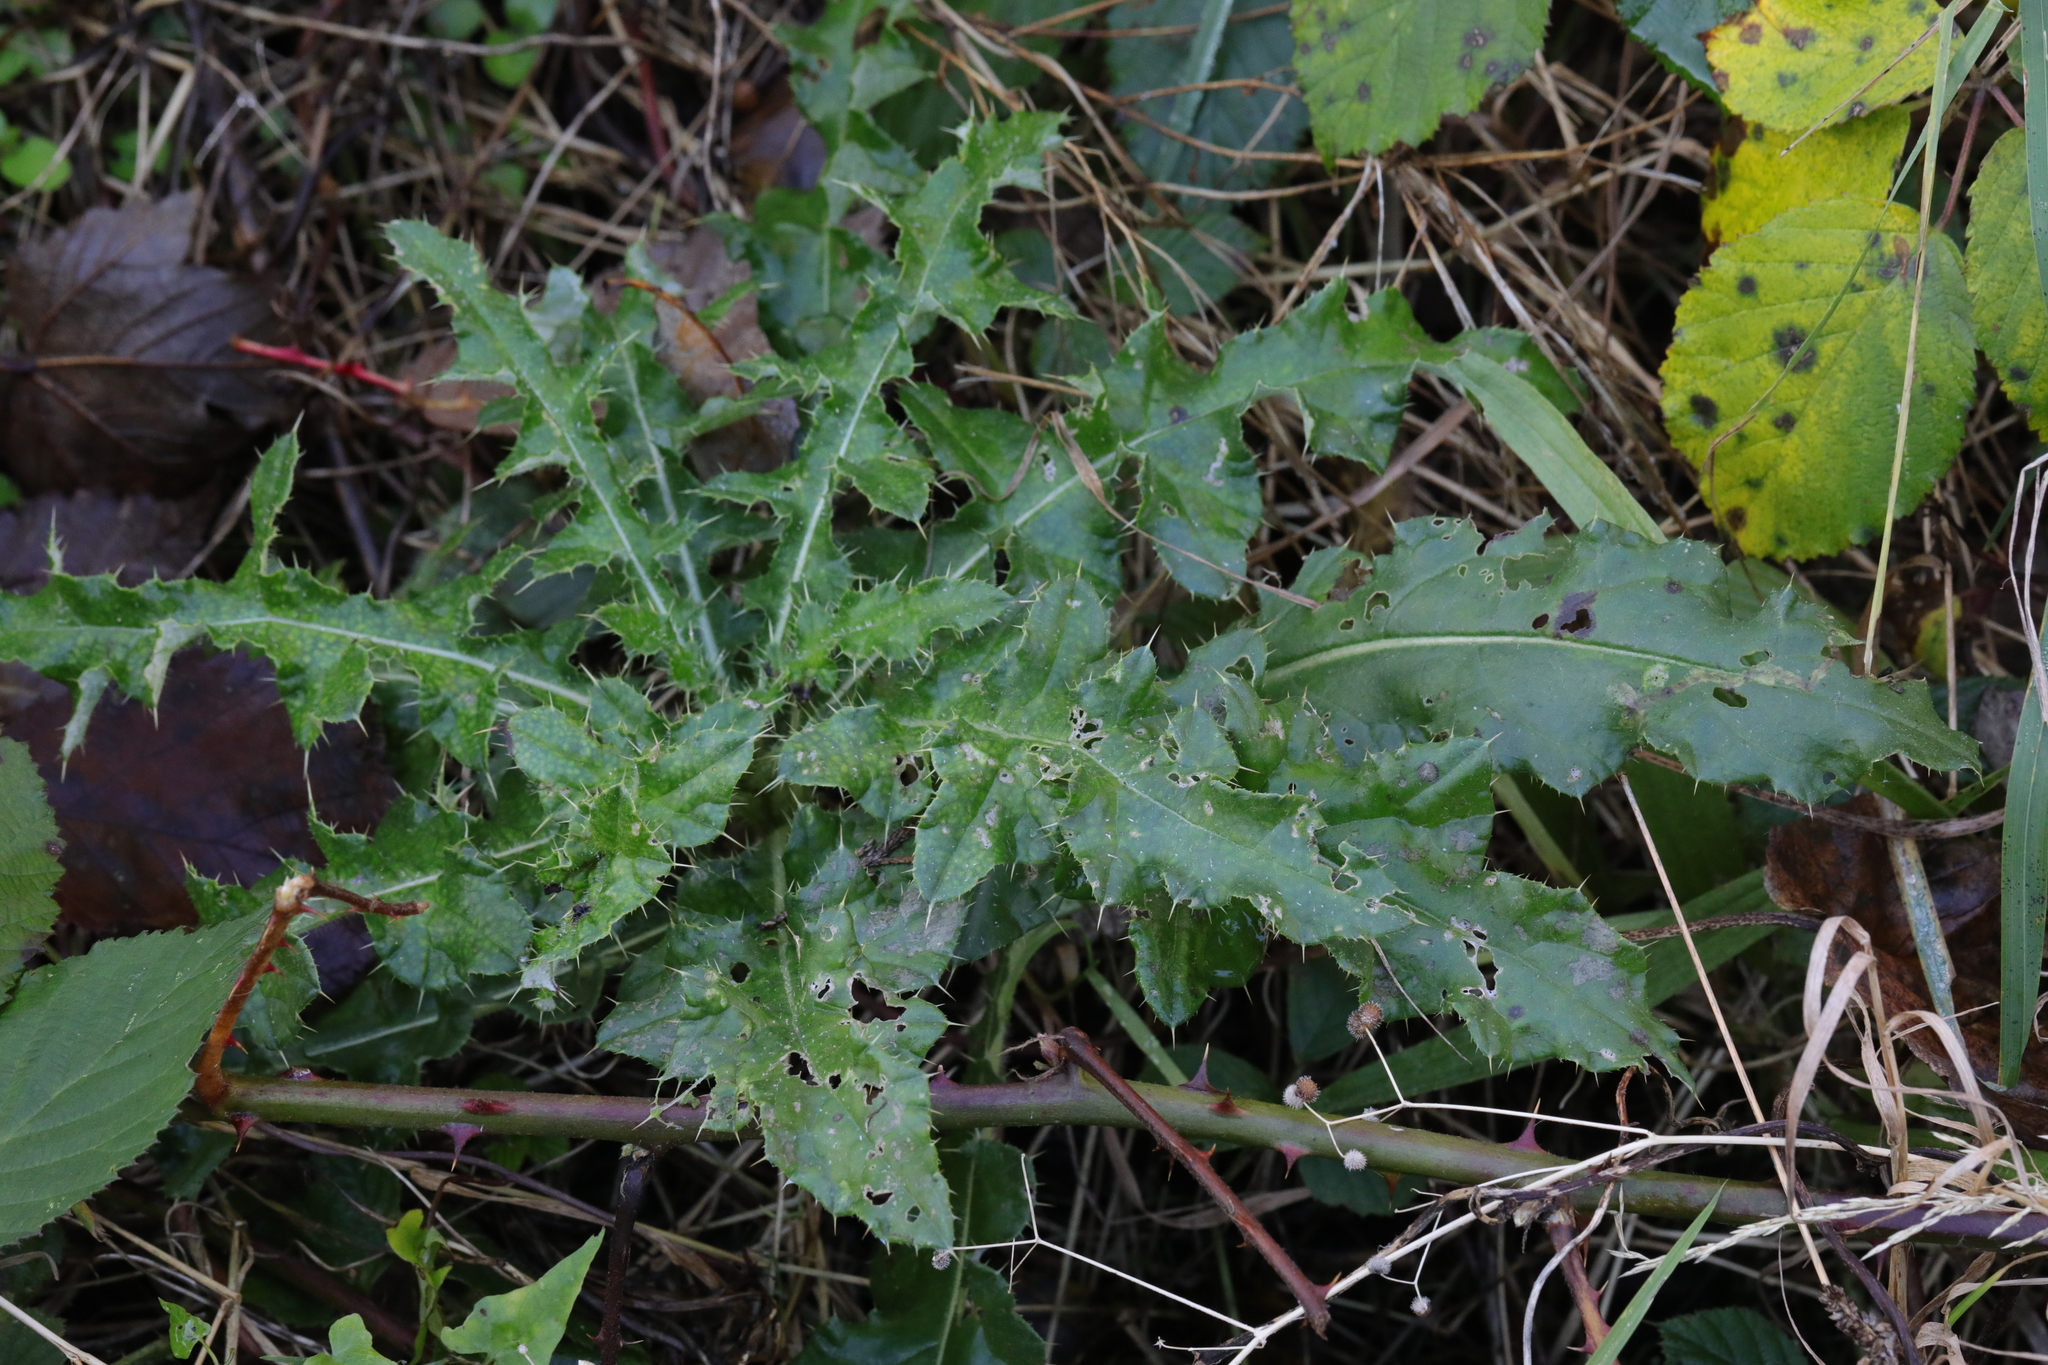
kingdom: Plantae
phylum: Tracheophyta
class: Magnoliopsida
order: Asterales
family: Asteraceae
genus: Cirsium
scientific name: Cirsium arvense
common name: Creeping thistle
